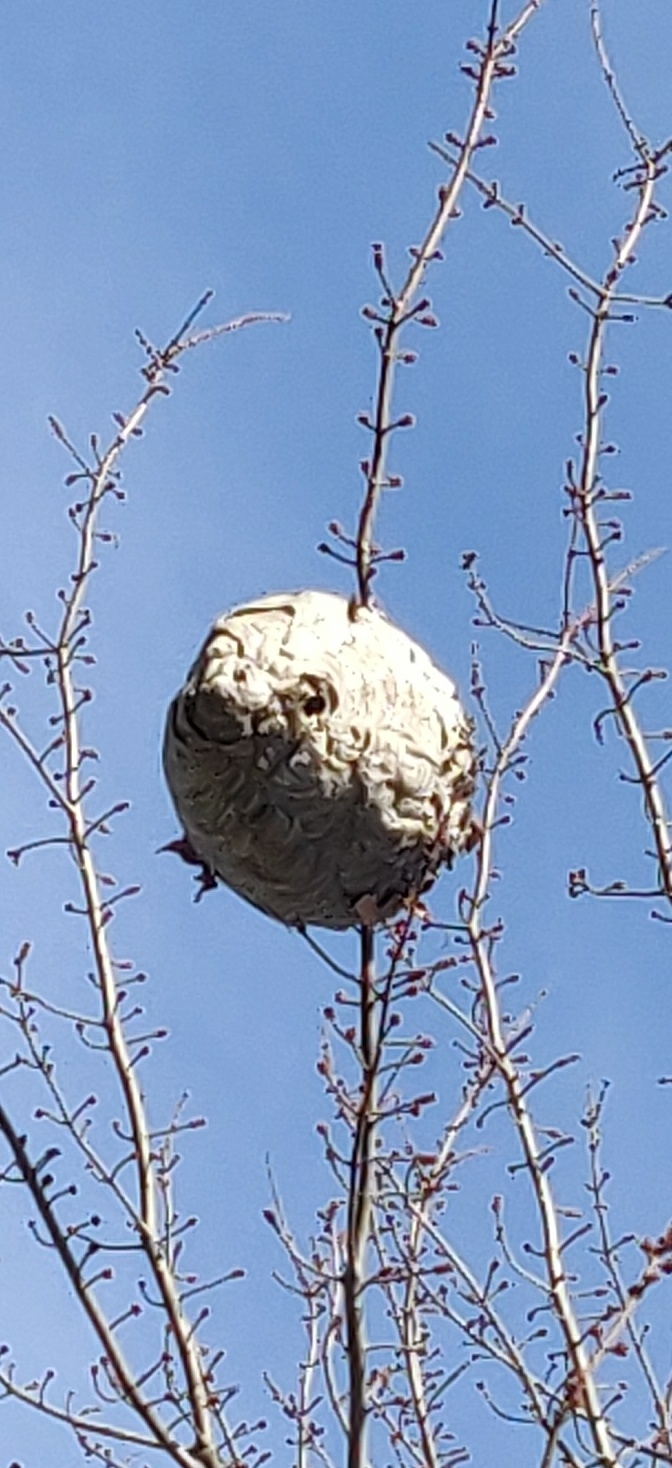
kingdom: Animalia
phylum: Arthropoda
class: Insecta
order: Hymenoptera
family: Vespidae
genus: Dolichovespula
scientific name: Dolichovespula maculata
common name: Bald-faced hornet
